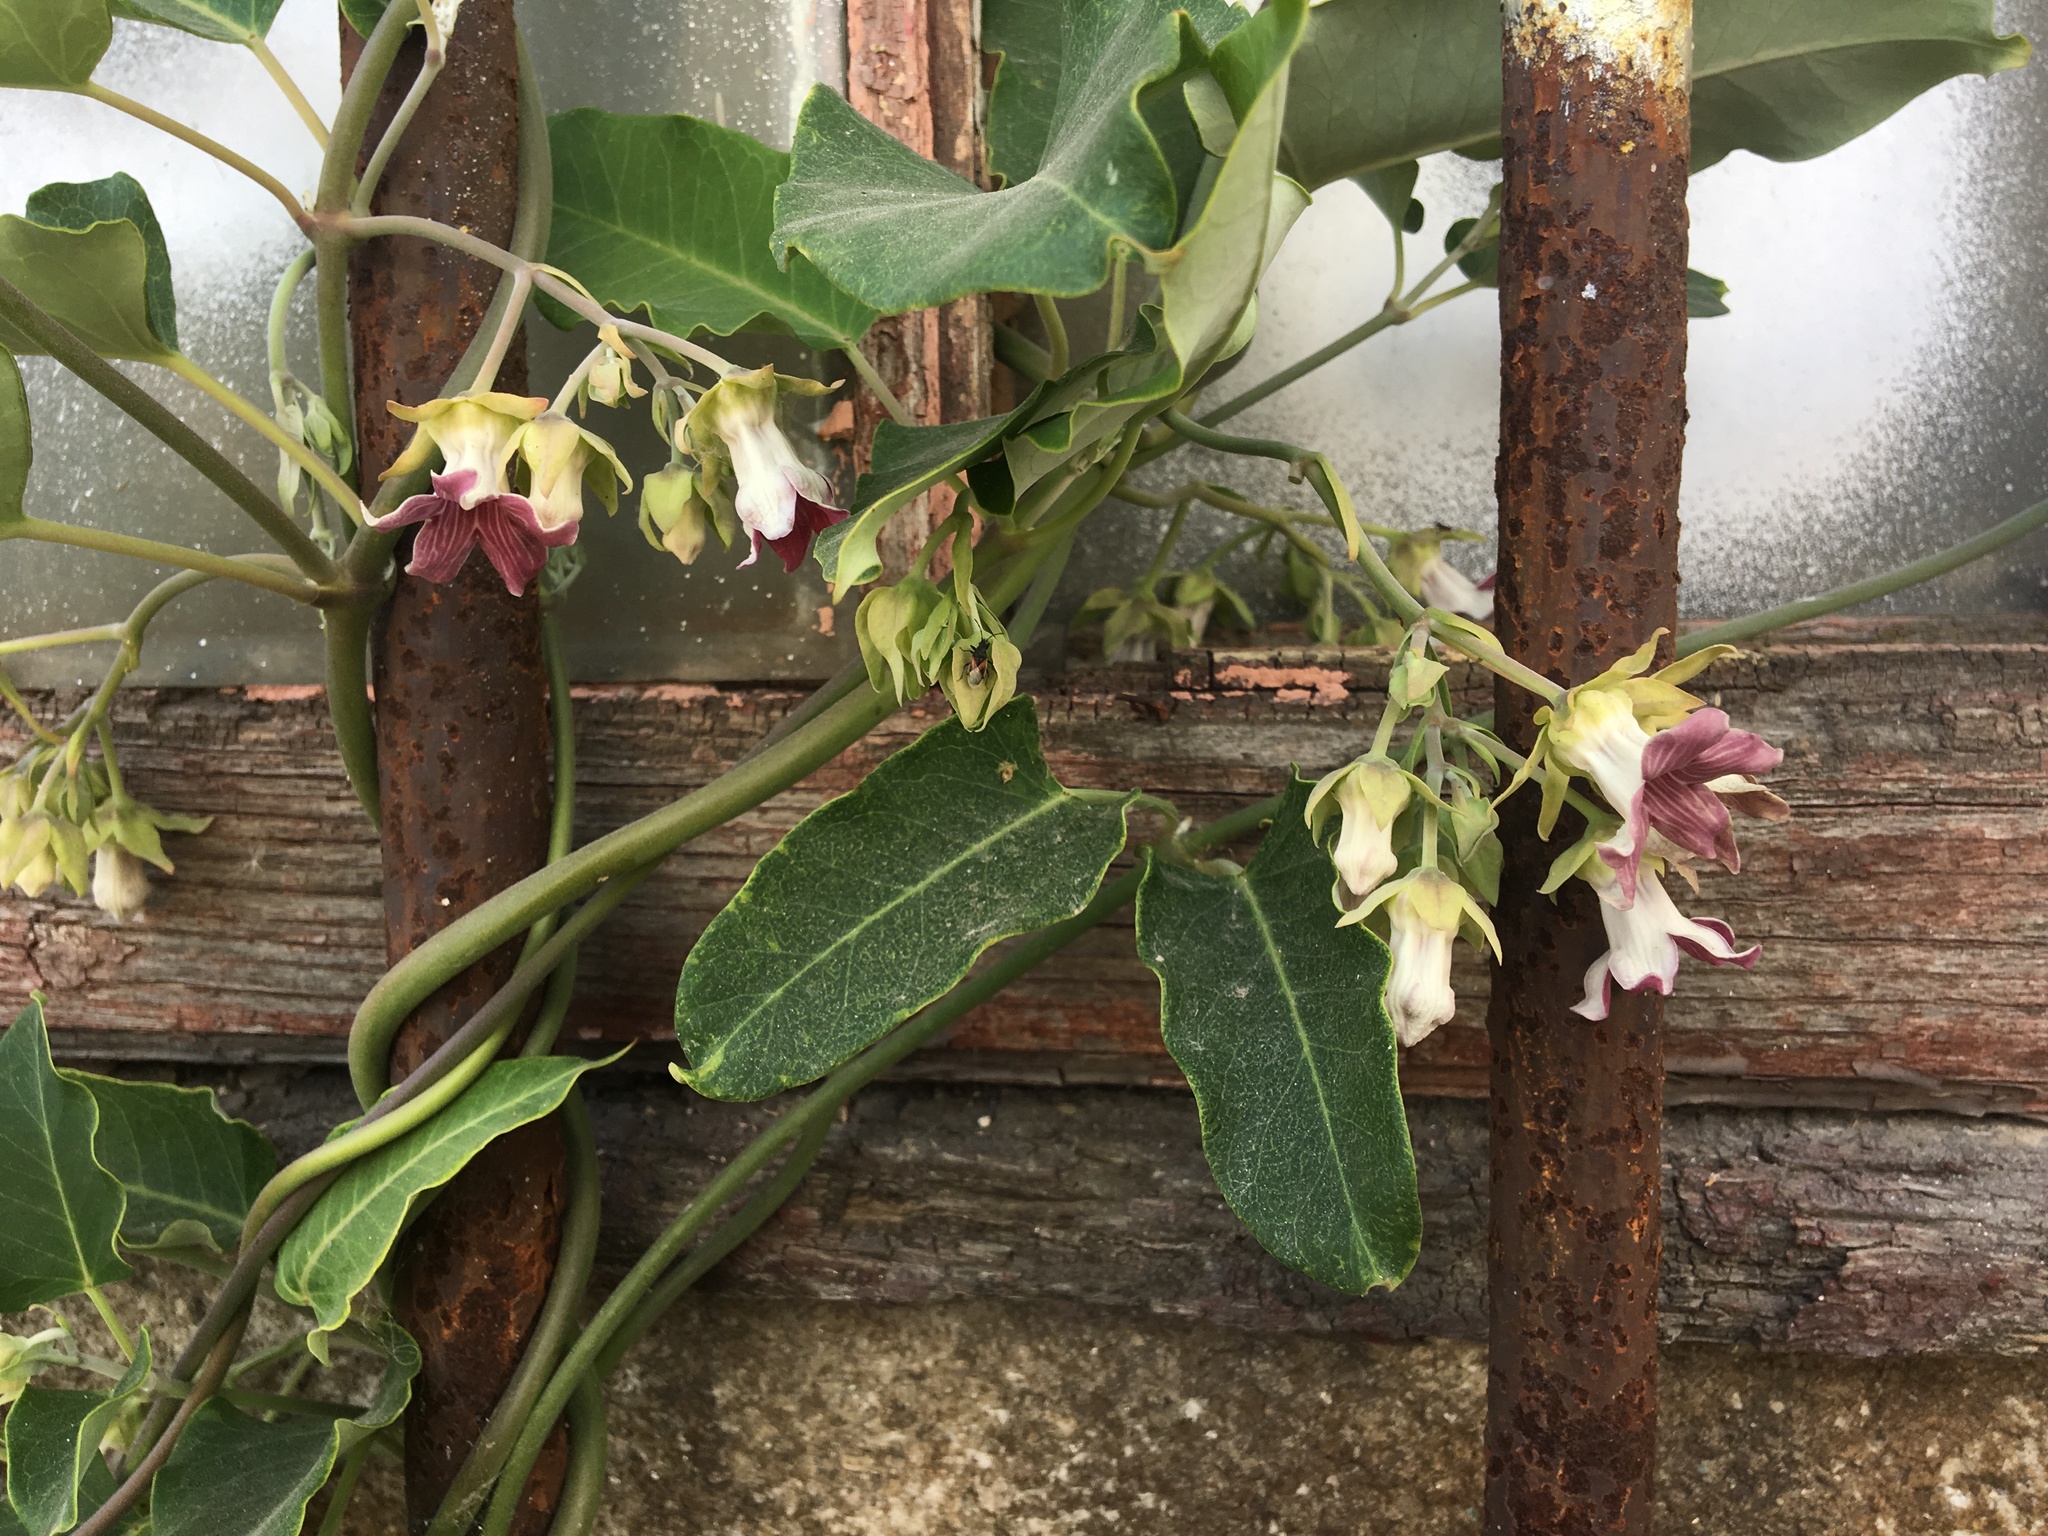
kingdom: Plantae
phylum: Tracheophyta
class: Magnoliopsida
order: Gentianales
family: Apocynaceae
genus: Araujia
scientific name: Araujia sericifera
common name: White bladderflower
